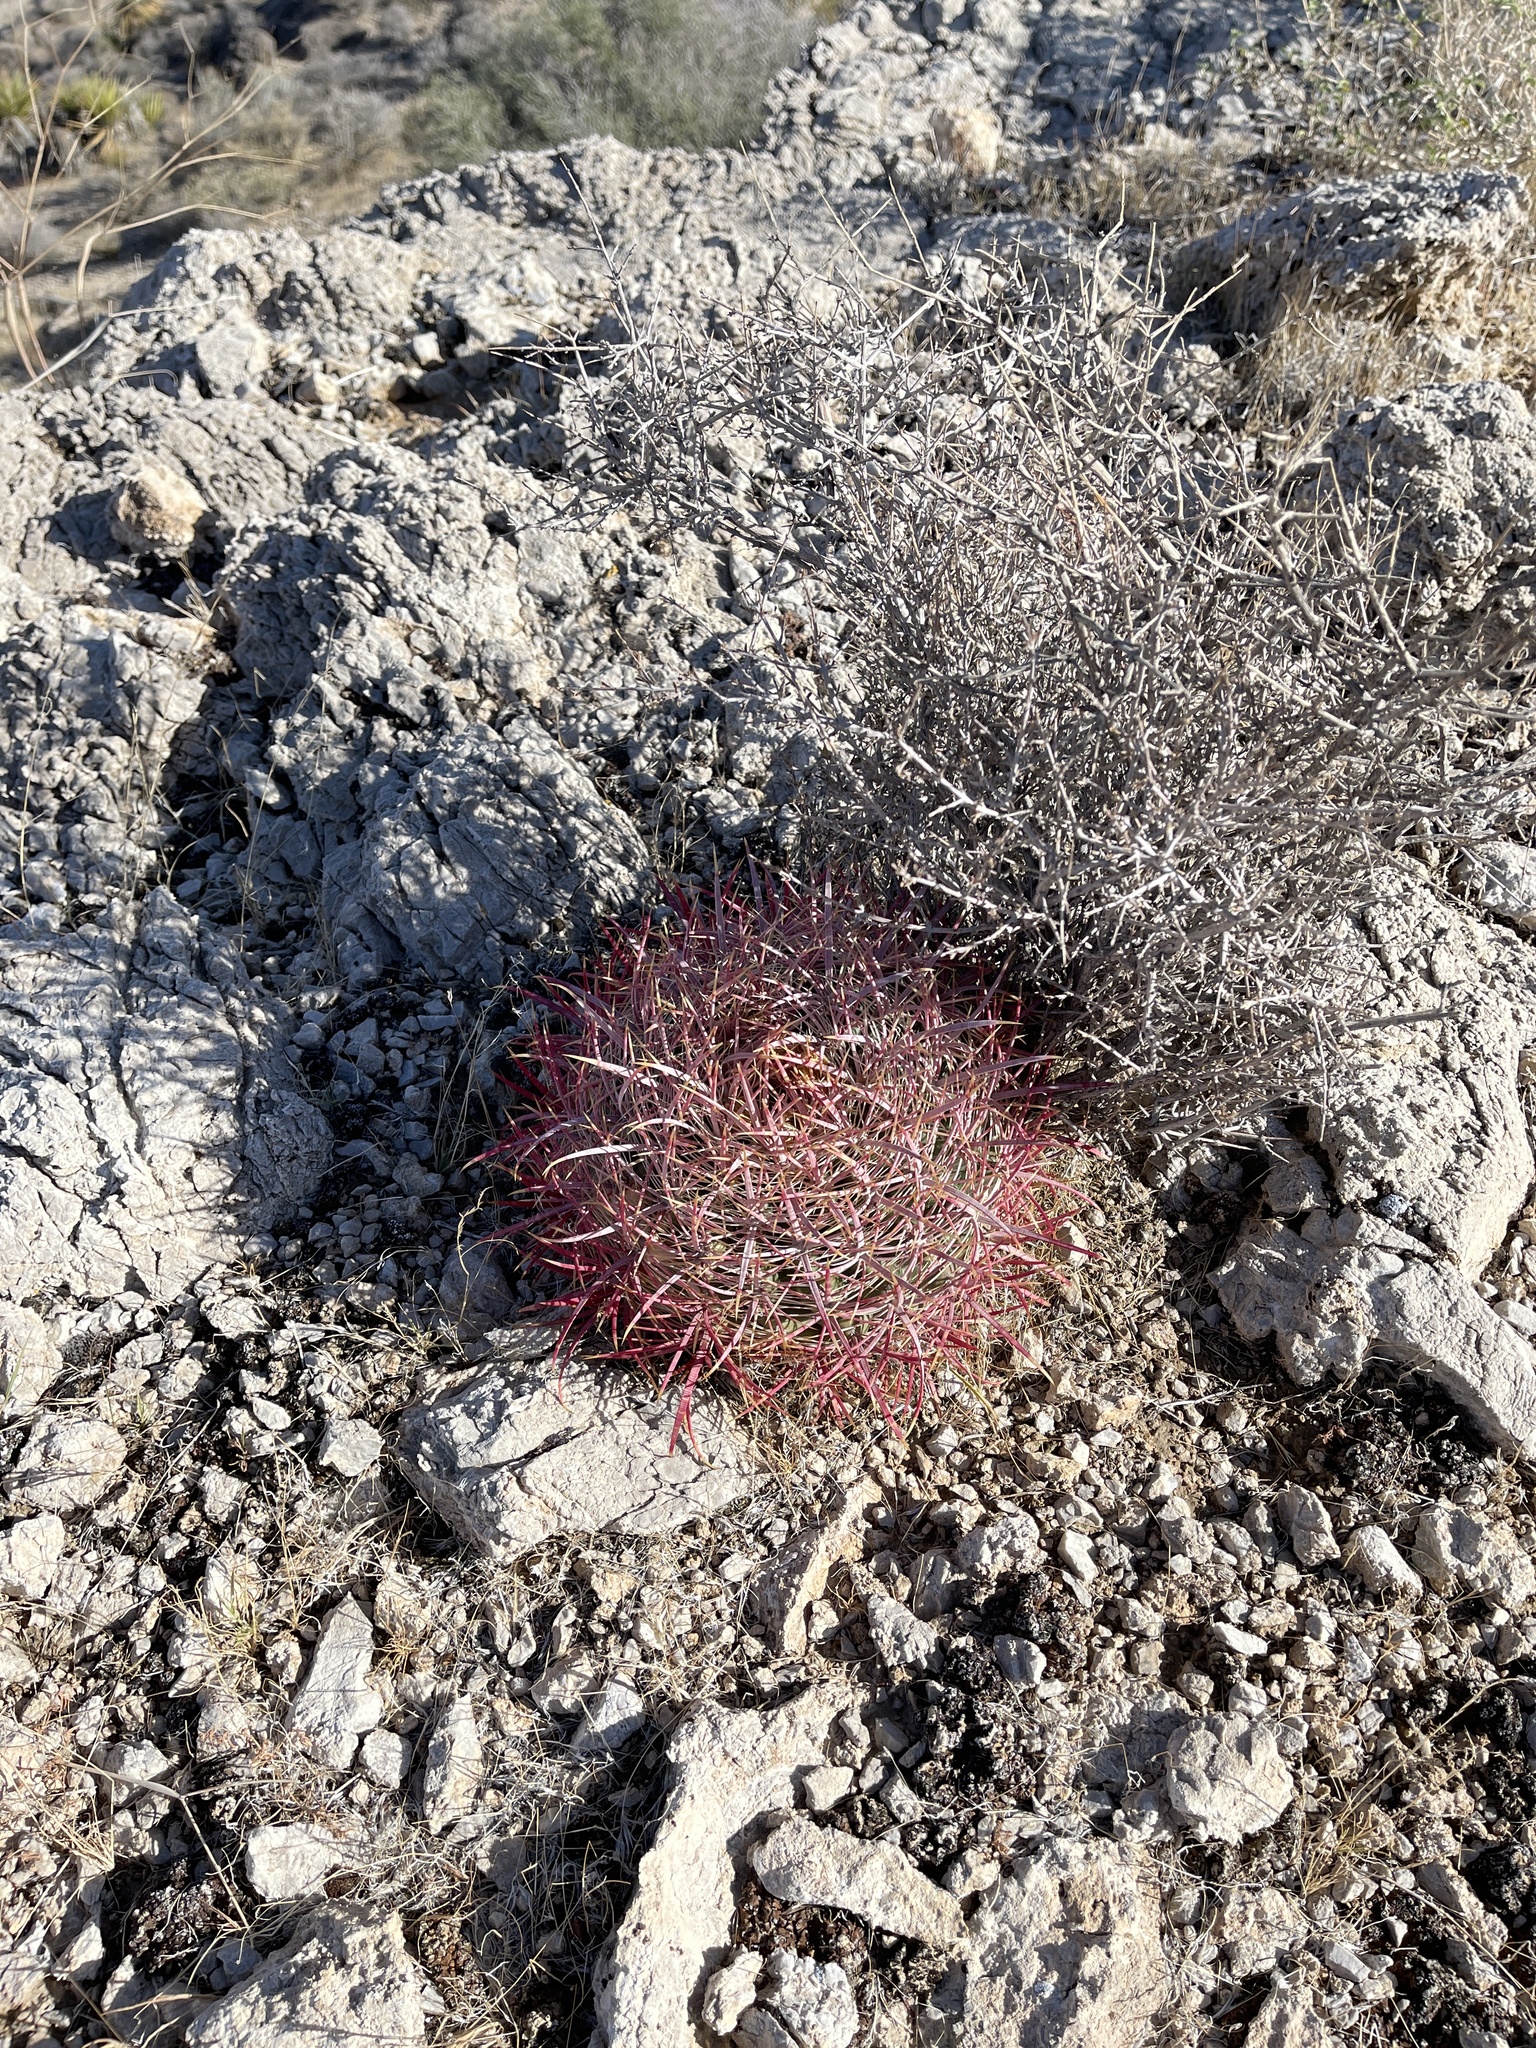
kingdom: Plantae
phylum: Tracheophyta
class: Magnoliopsida
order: Caryophyllales
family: Cactaceae
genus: Ferocactus
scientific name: Ferocactus cylindraceus
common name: California barrel cactus
